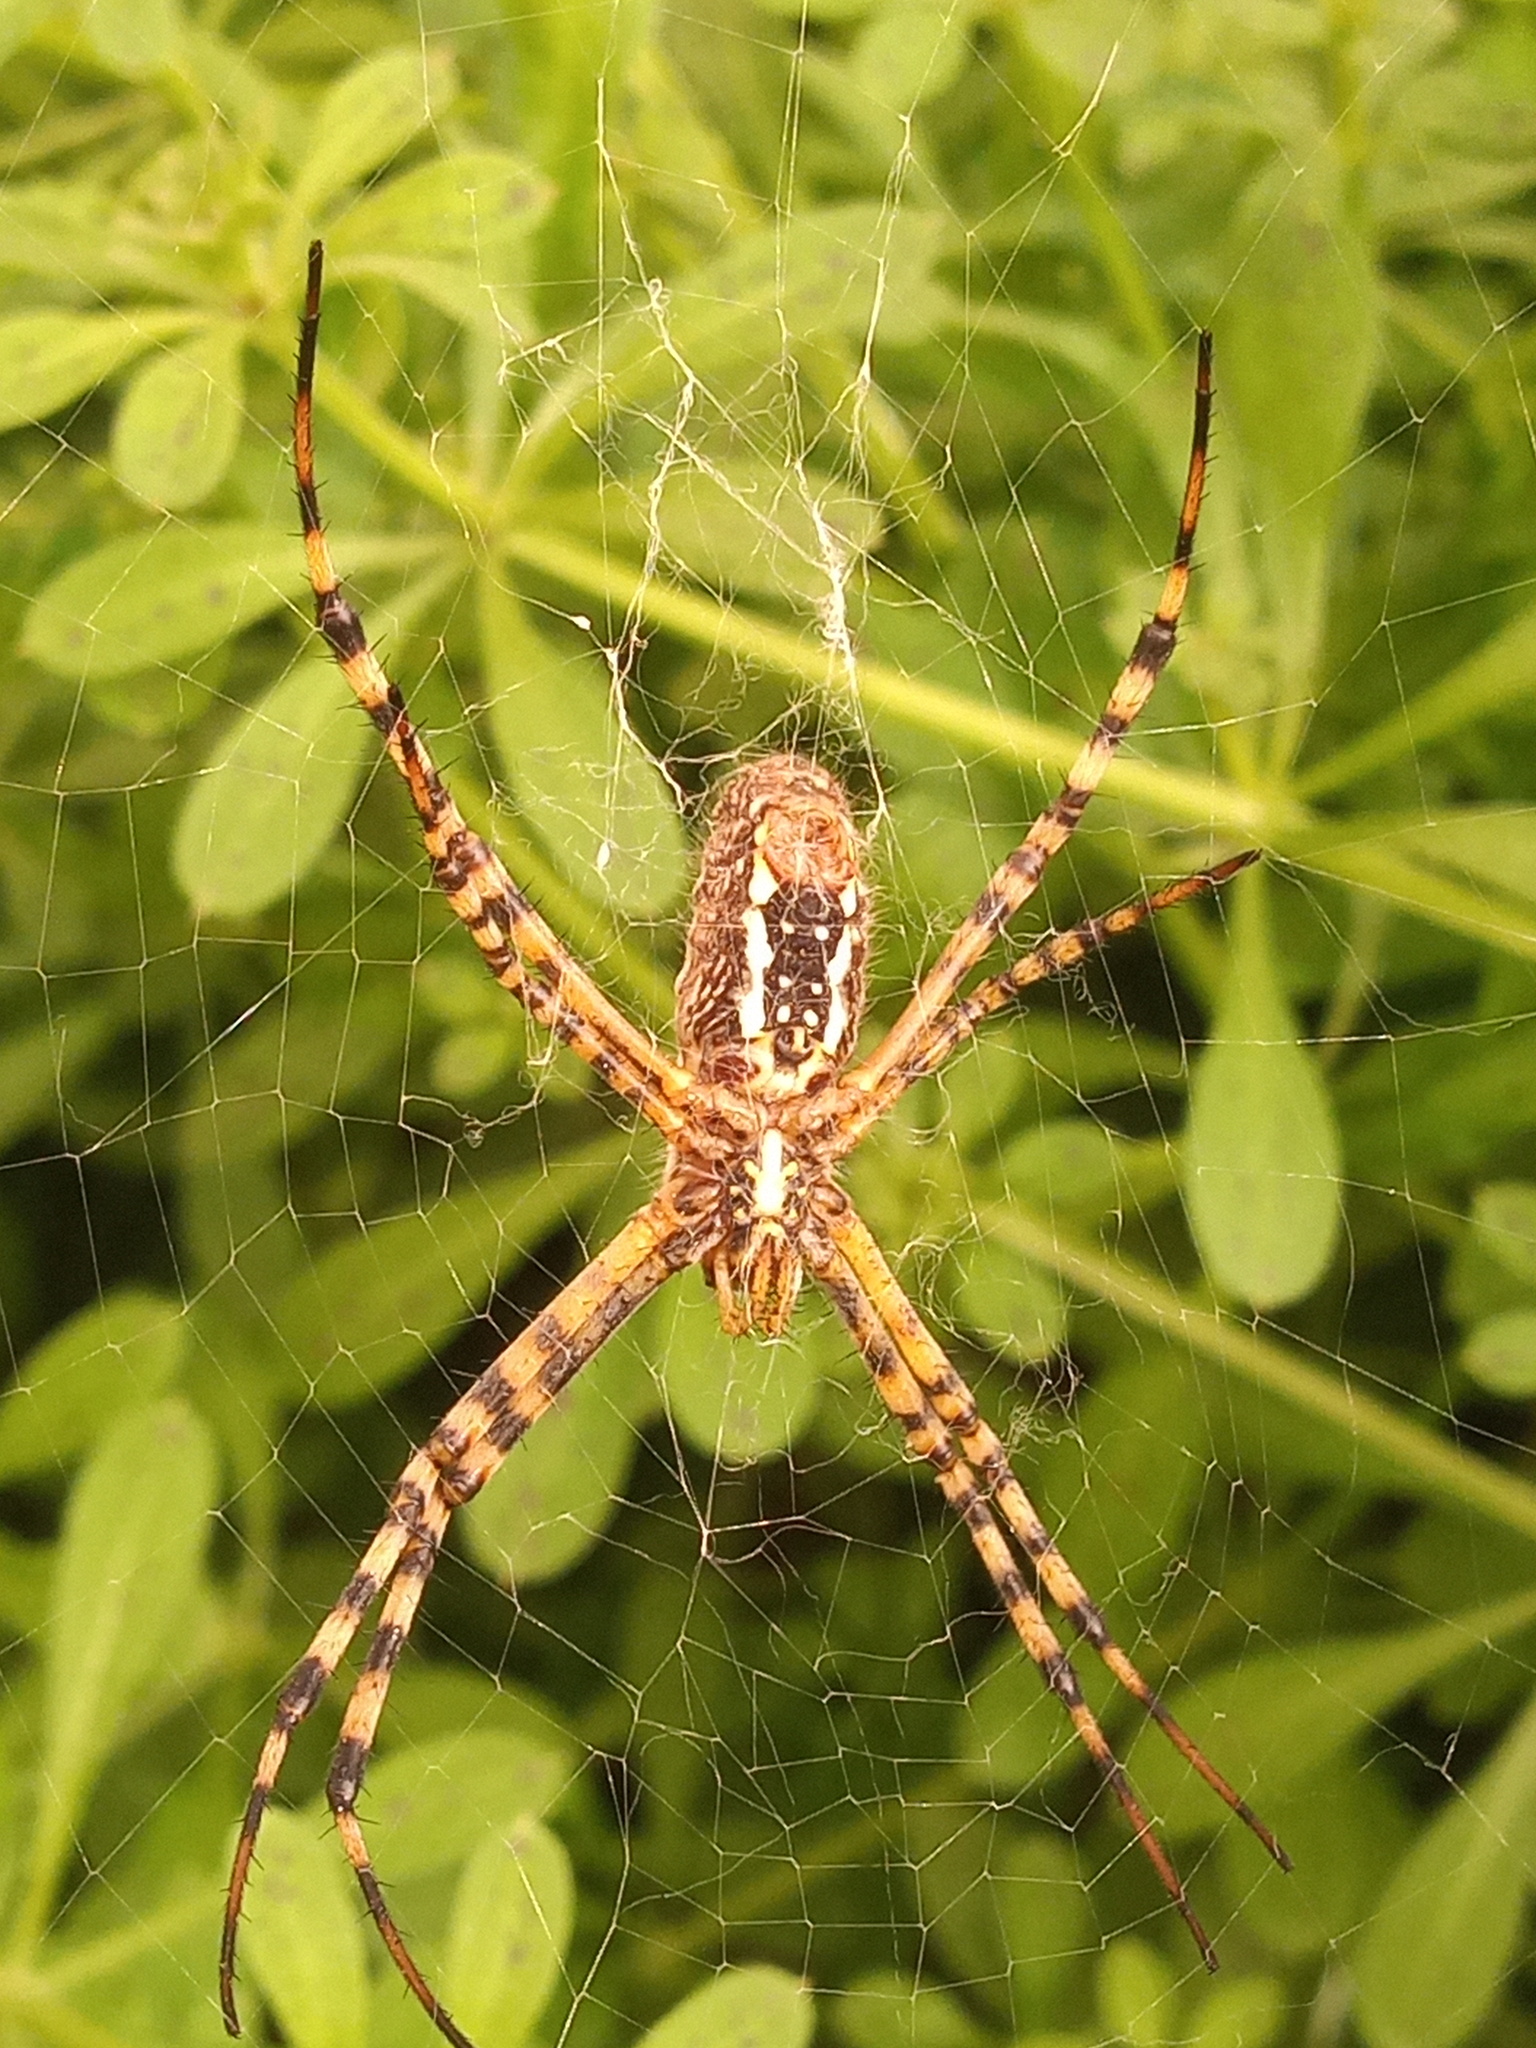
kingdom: Animalia
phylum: Arthropoda
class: Arachnida
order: Araneae
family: Araneidae
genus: Argiope
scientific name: Argiope trifasciata
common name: Banded garden spider
